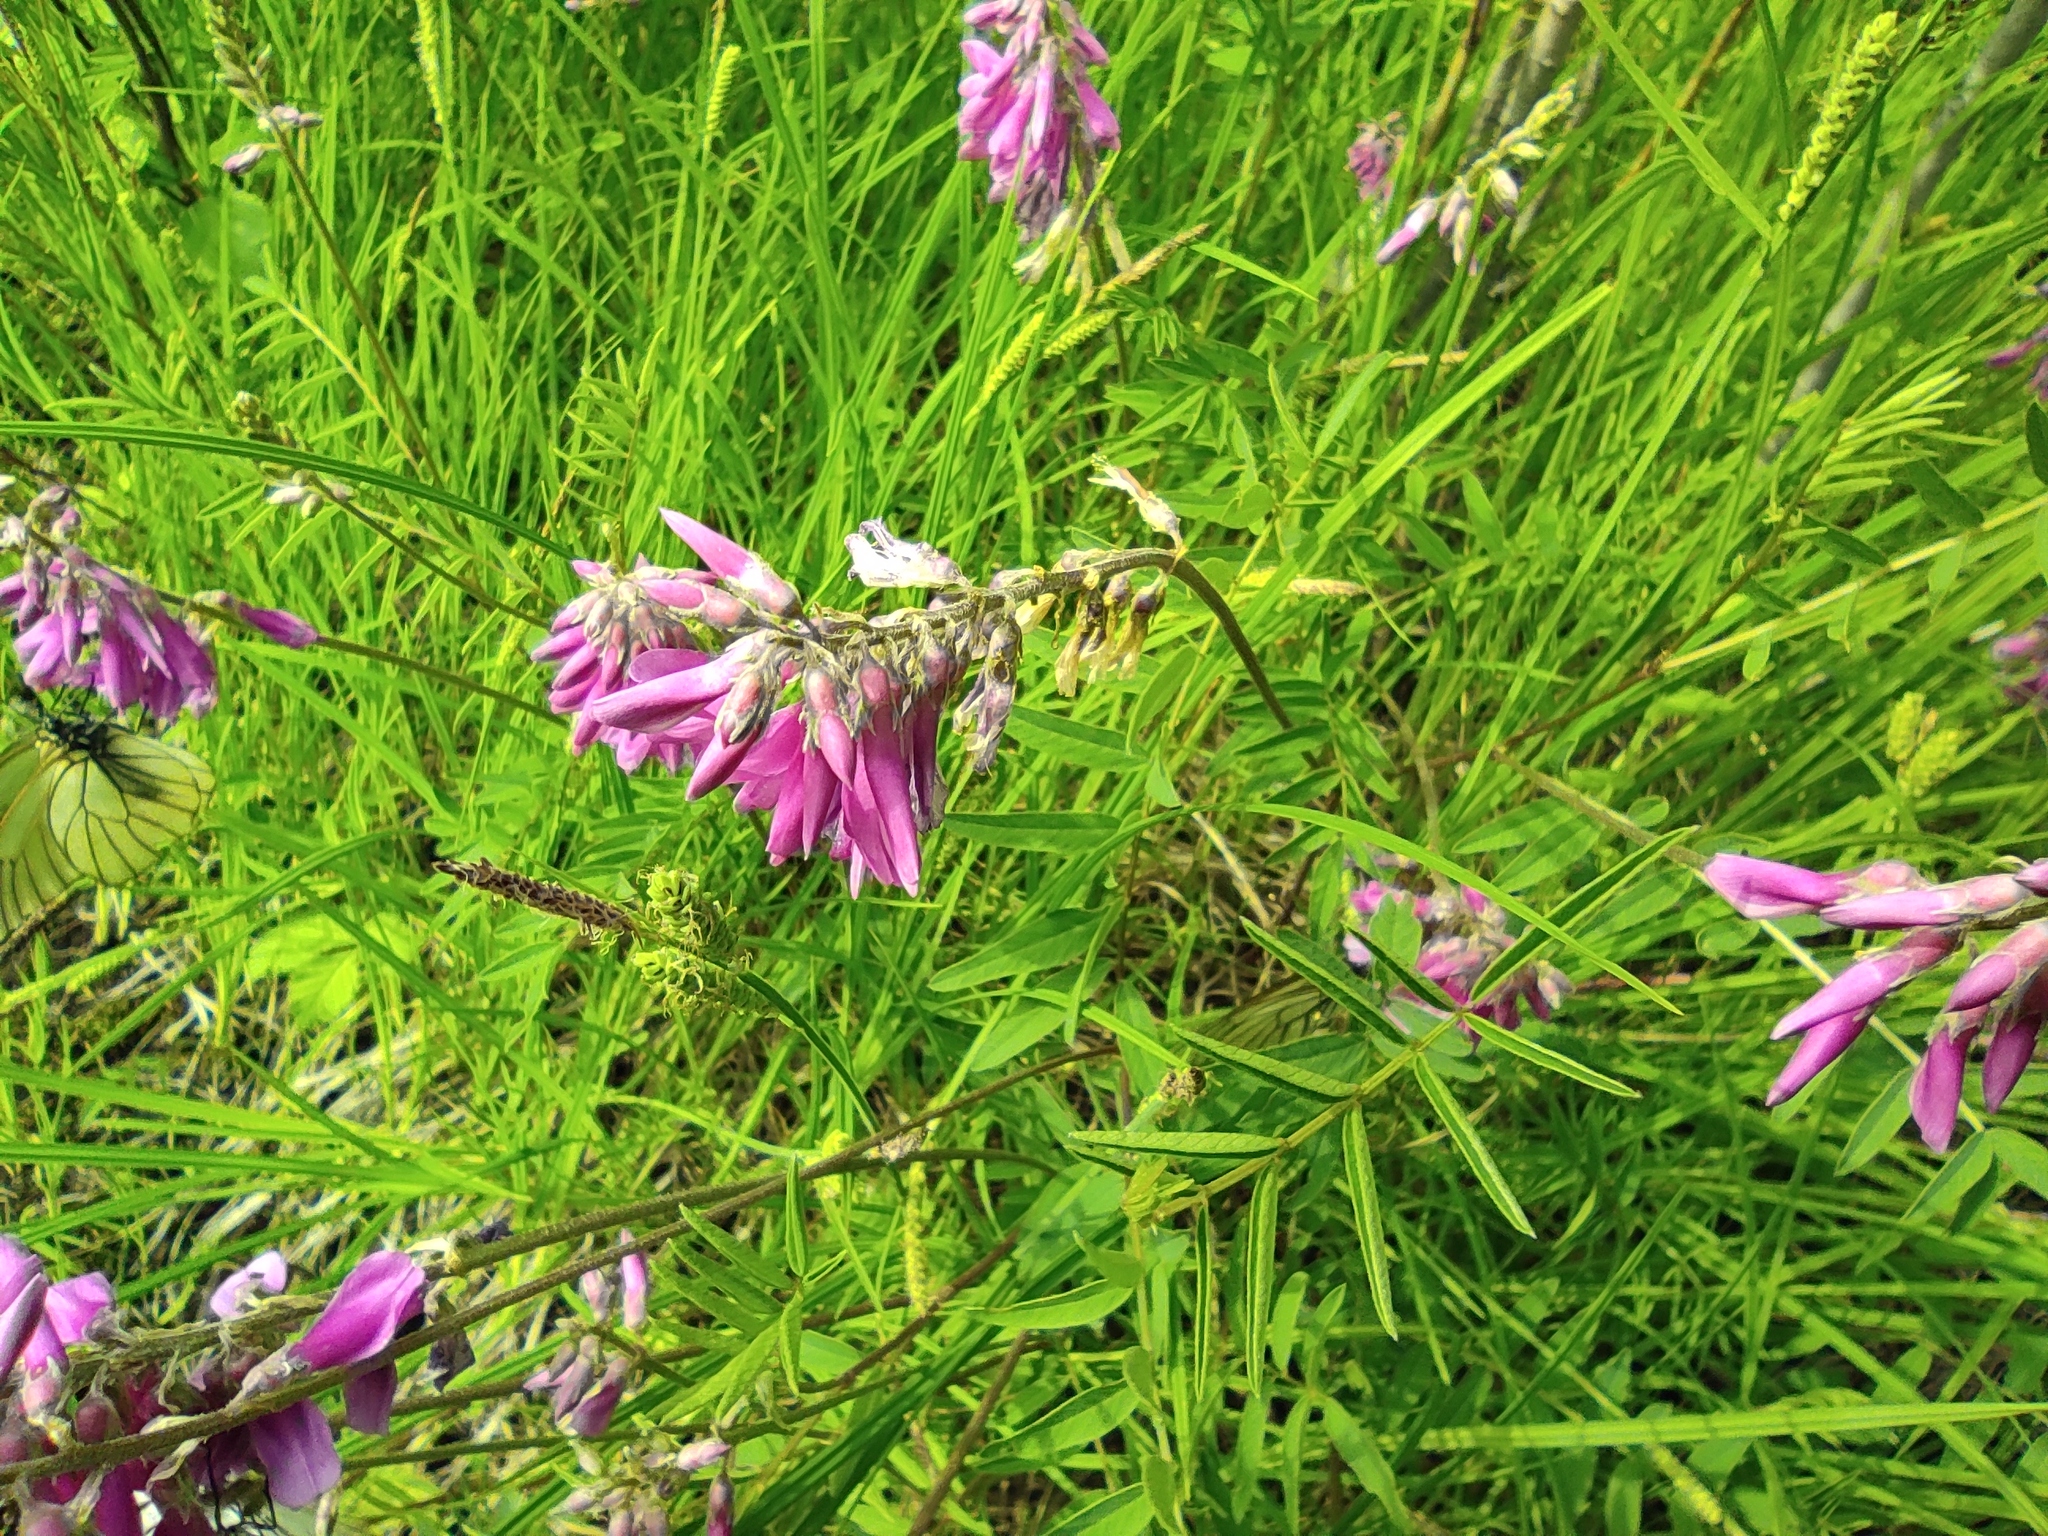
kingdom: Animalia
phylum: Arthropoda
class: Insecta
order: Lepidoptera
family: Pieridae
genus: Aporia
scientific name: Aporia crataegi
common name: Black-veined white
